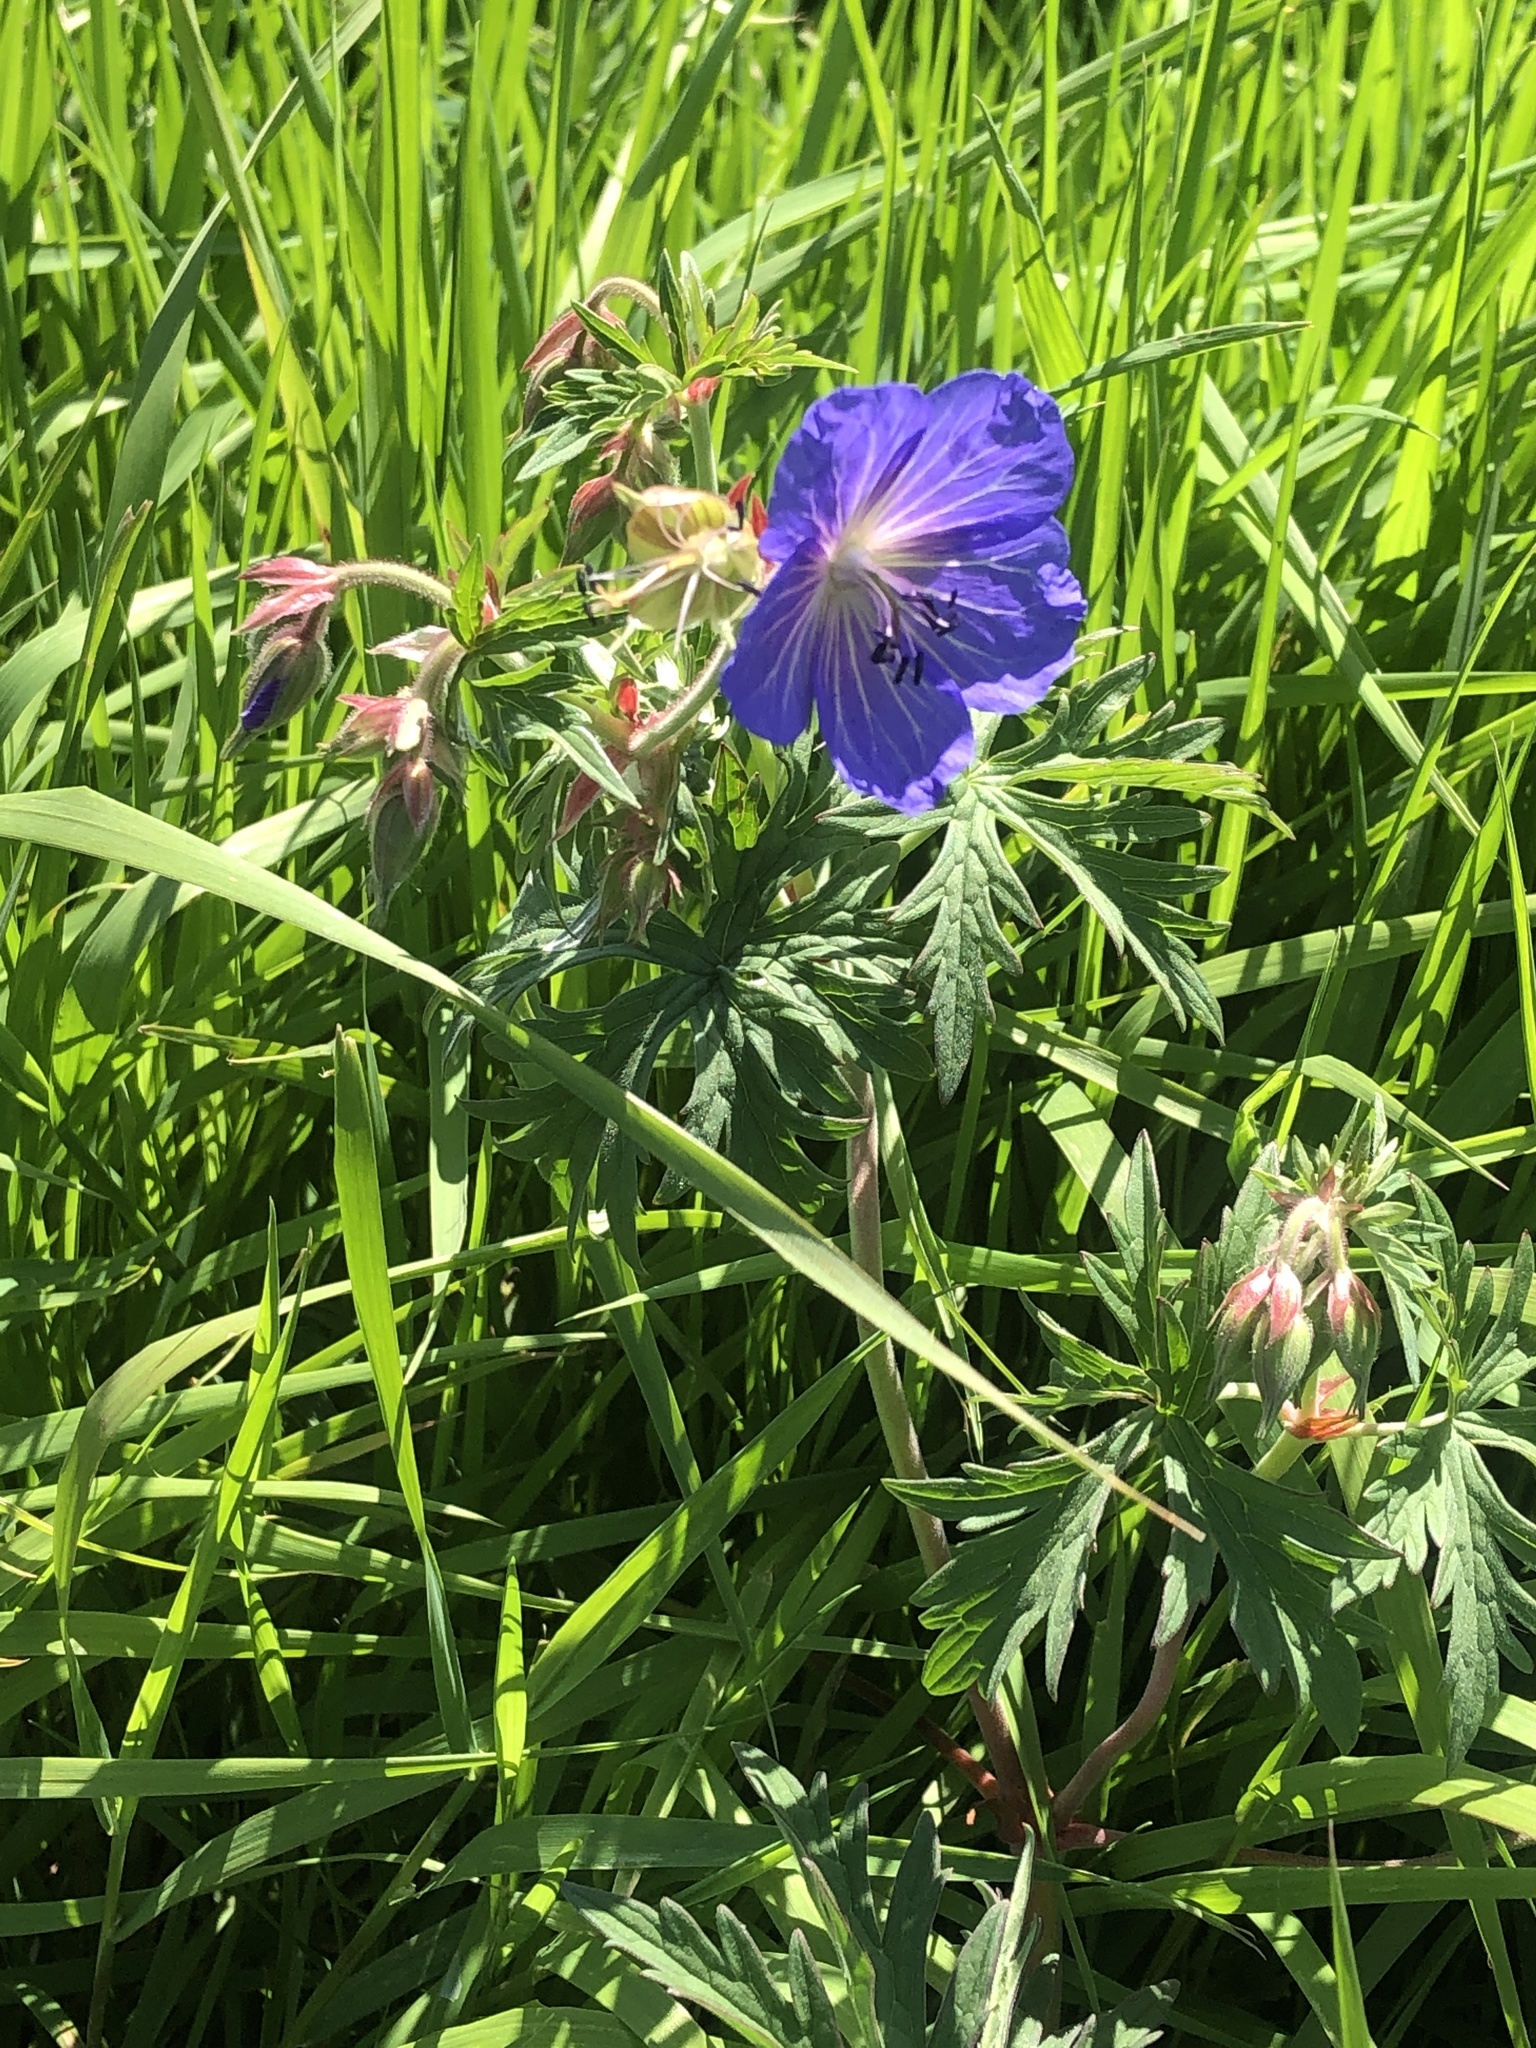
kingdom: Plantae
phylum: Tracheophyta
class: Magnoliopsida
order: Geraniales
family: Geraniaceae
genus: Geranium
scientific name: Geranium pratense
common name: Meadow crane's-bill
